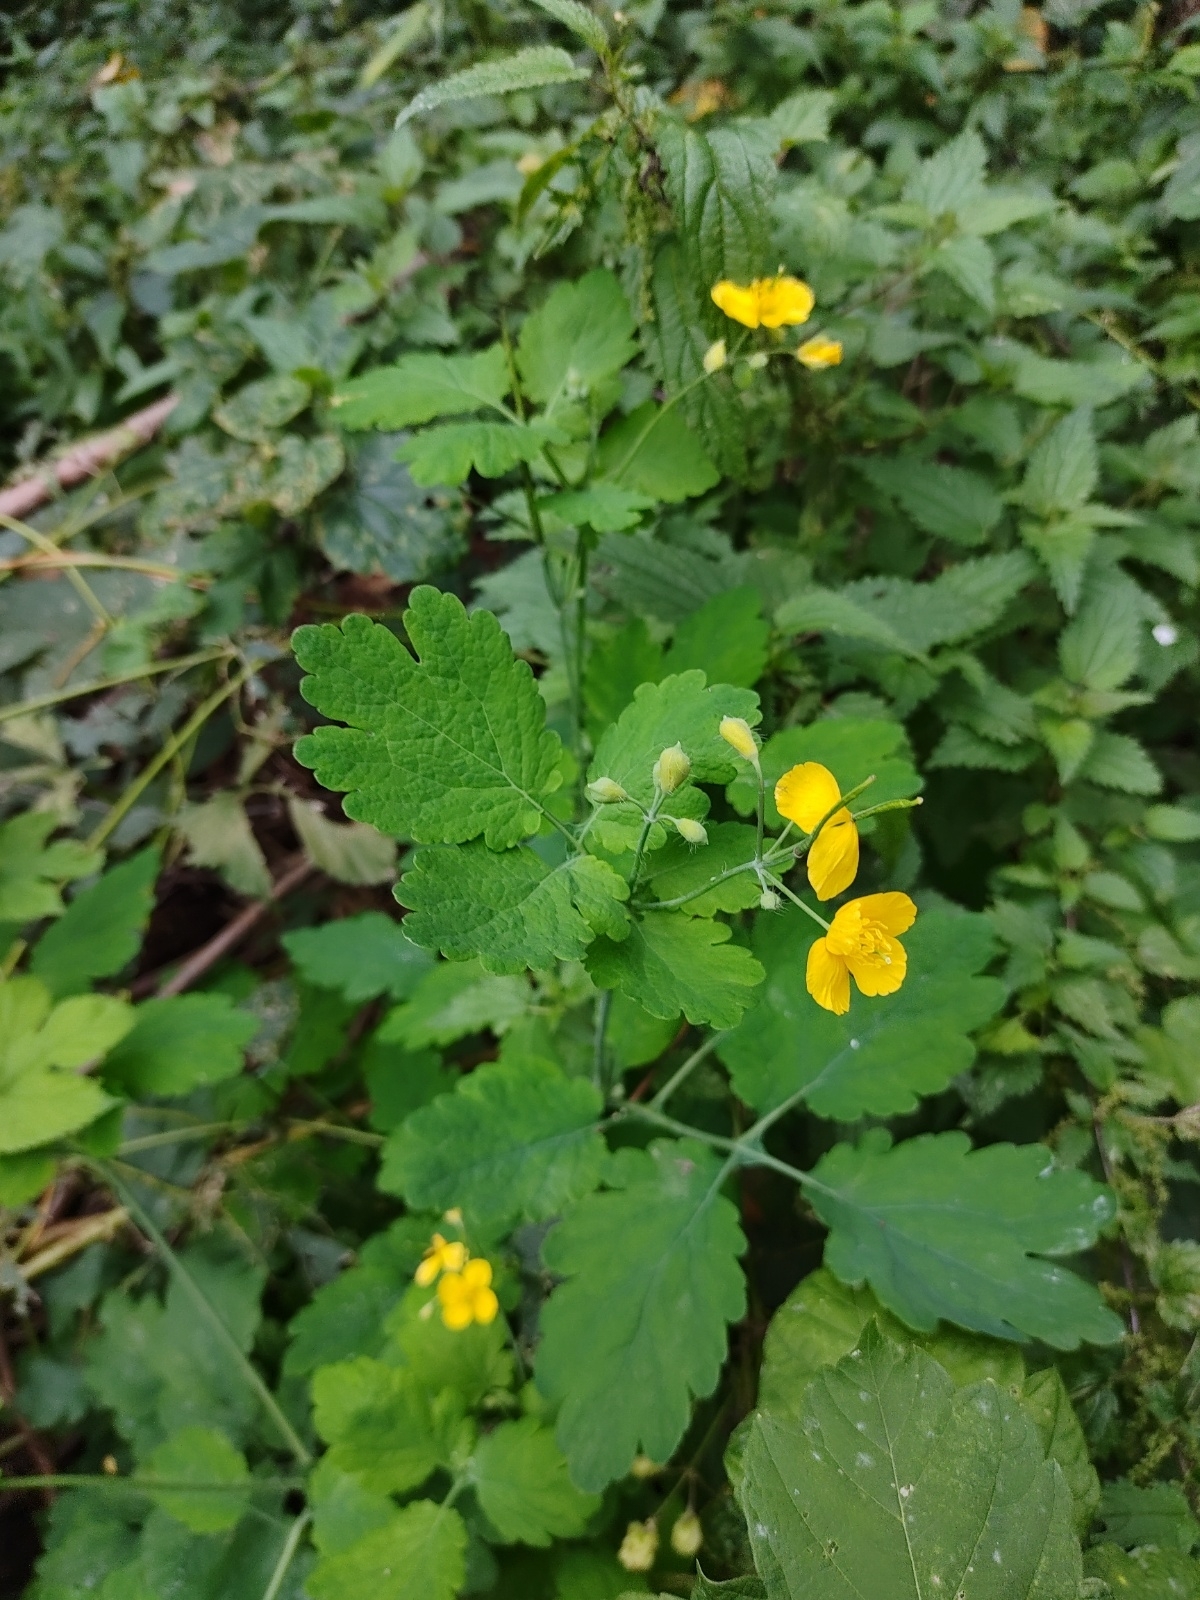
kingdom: Plantae
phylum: Tracheophyta
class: Magnoliopsida
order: Ranunculales
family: Papaveraceae
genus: Chelidonium
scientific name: Chelidonium majus
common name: Greater celandine
